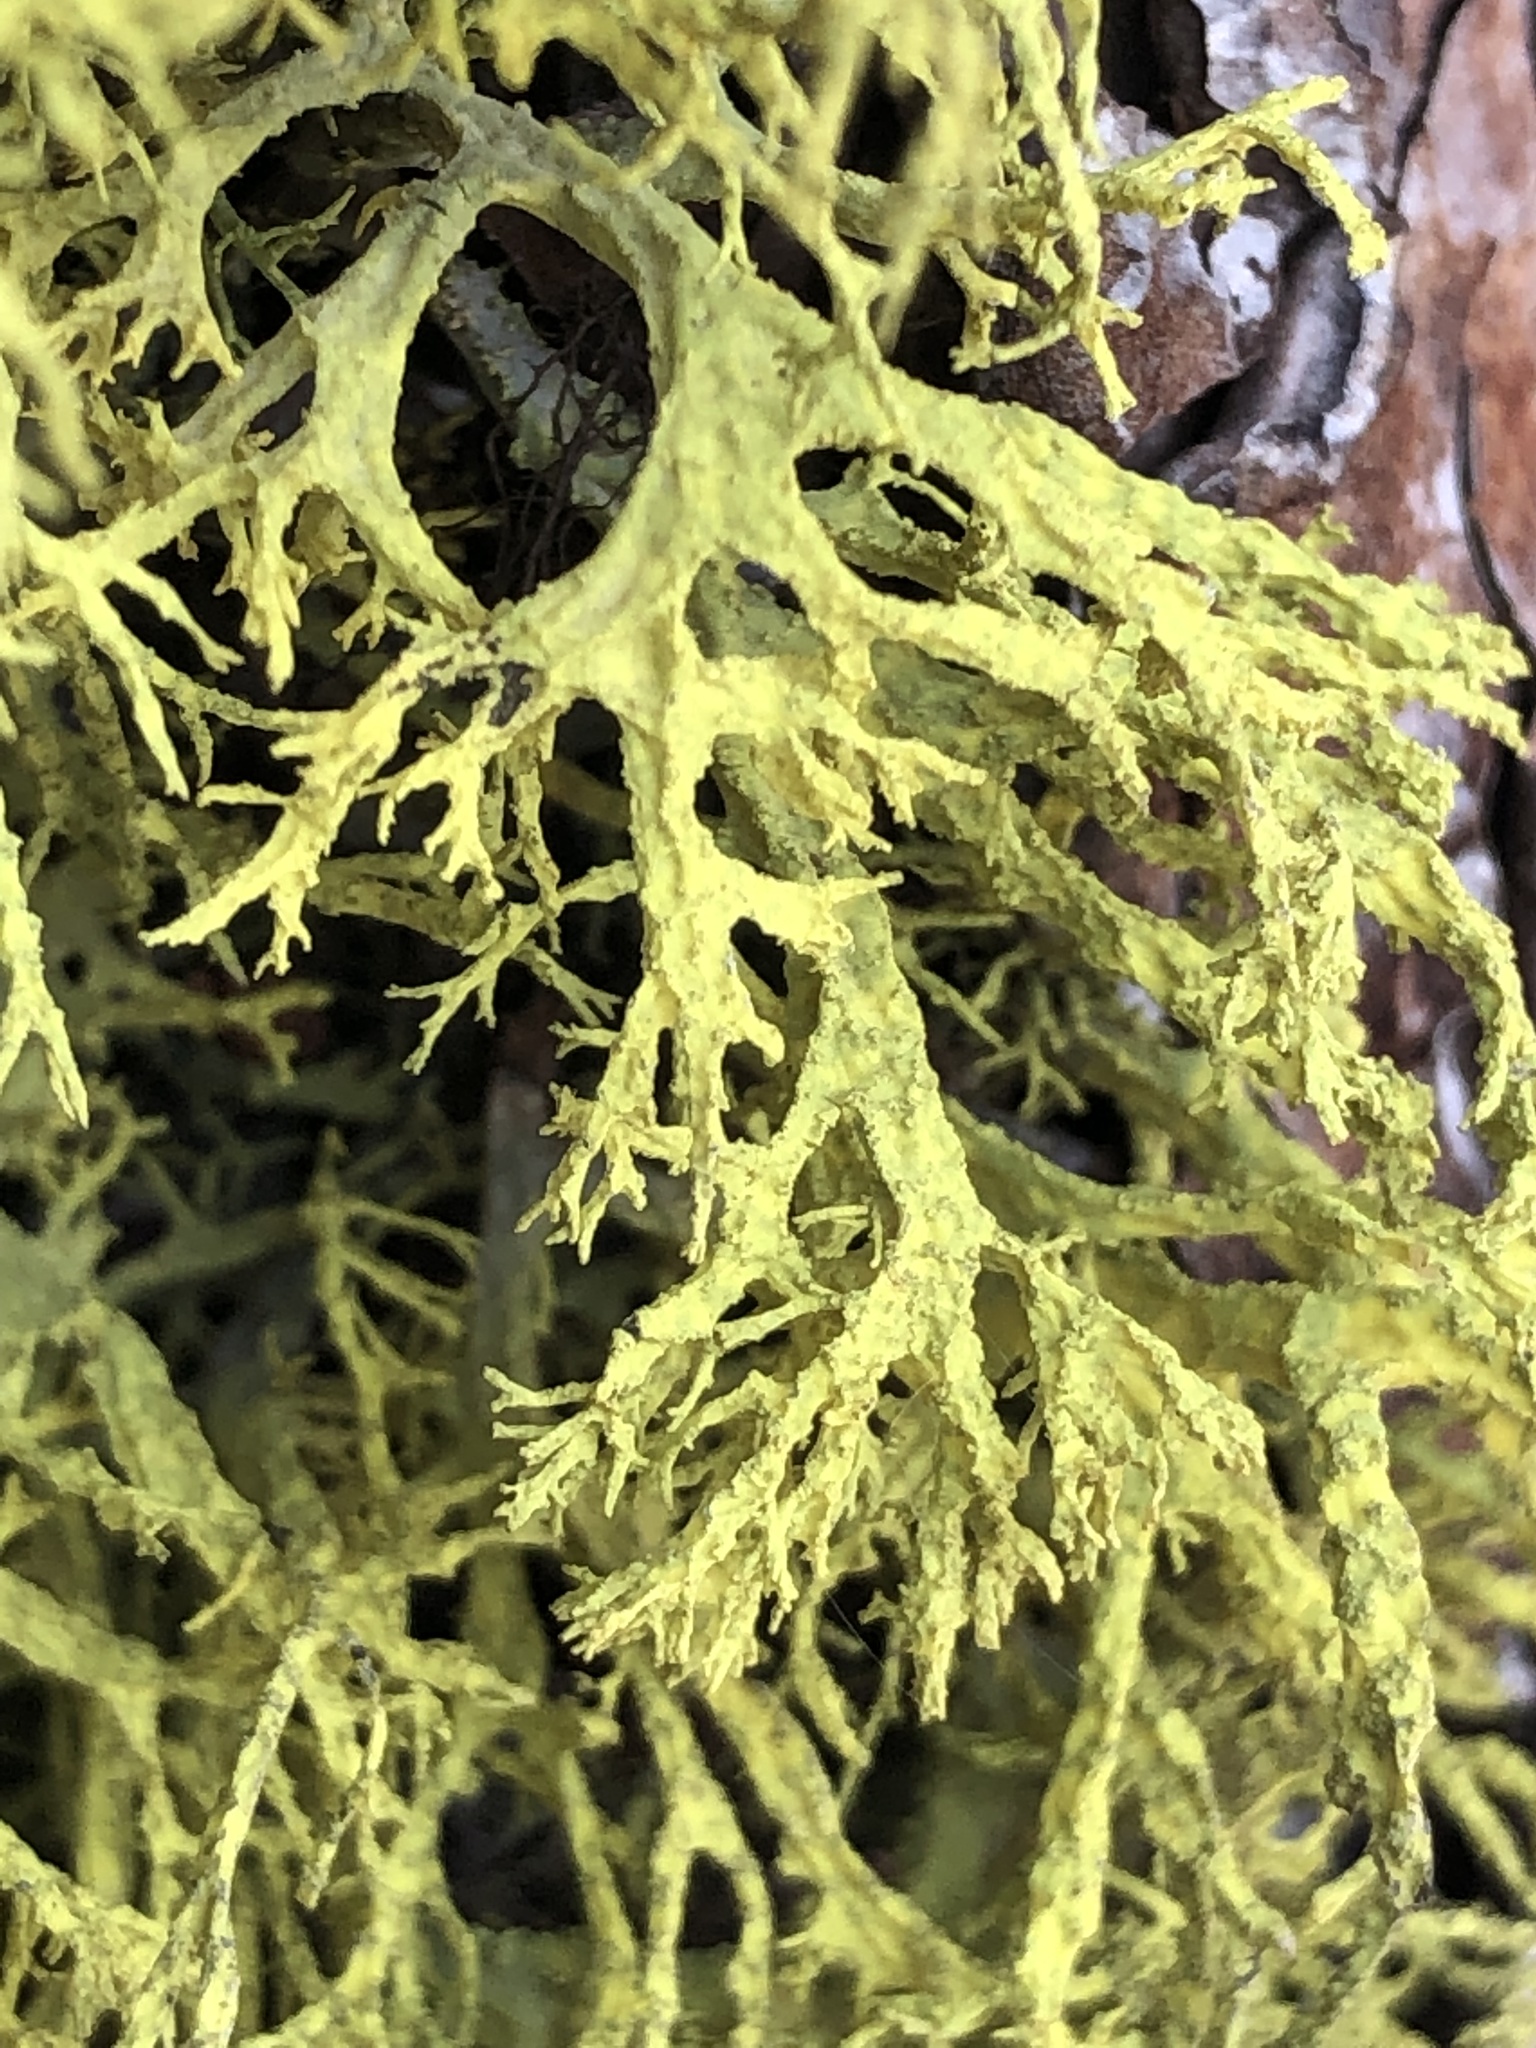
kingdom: Fungi
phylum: Ascomycota
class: Lecanoromycetes
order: Lecanorales
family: Parmeliaceae
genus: Letharia
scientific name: Letharia vulpina
